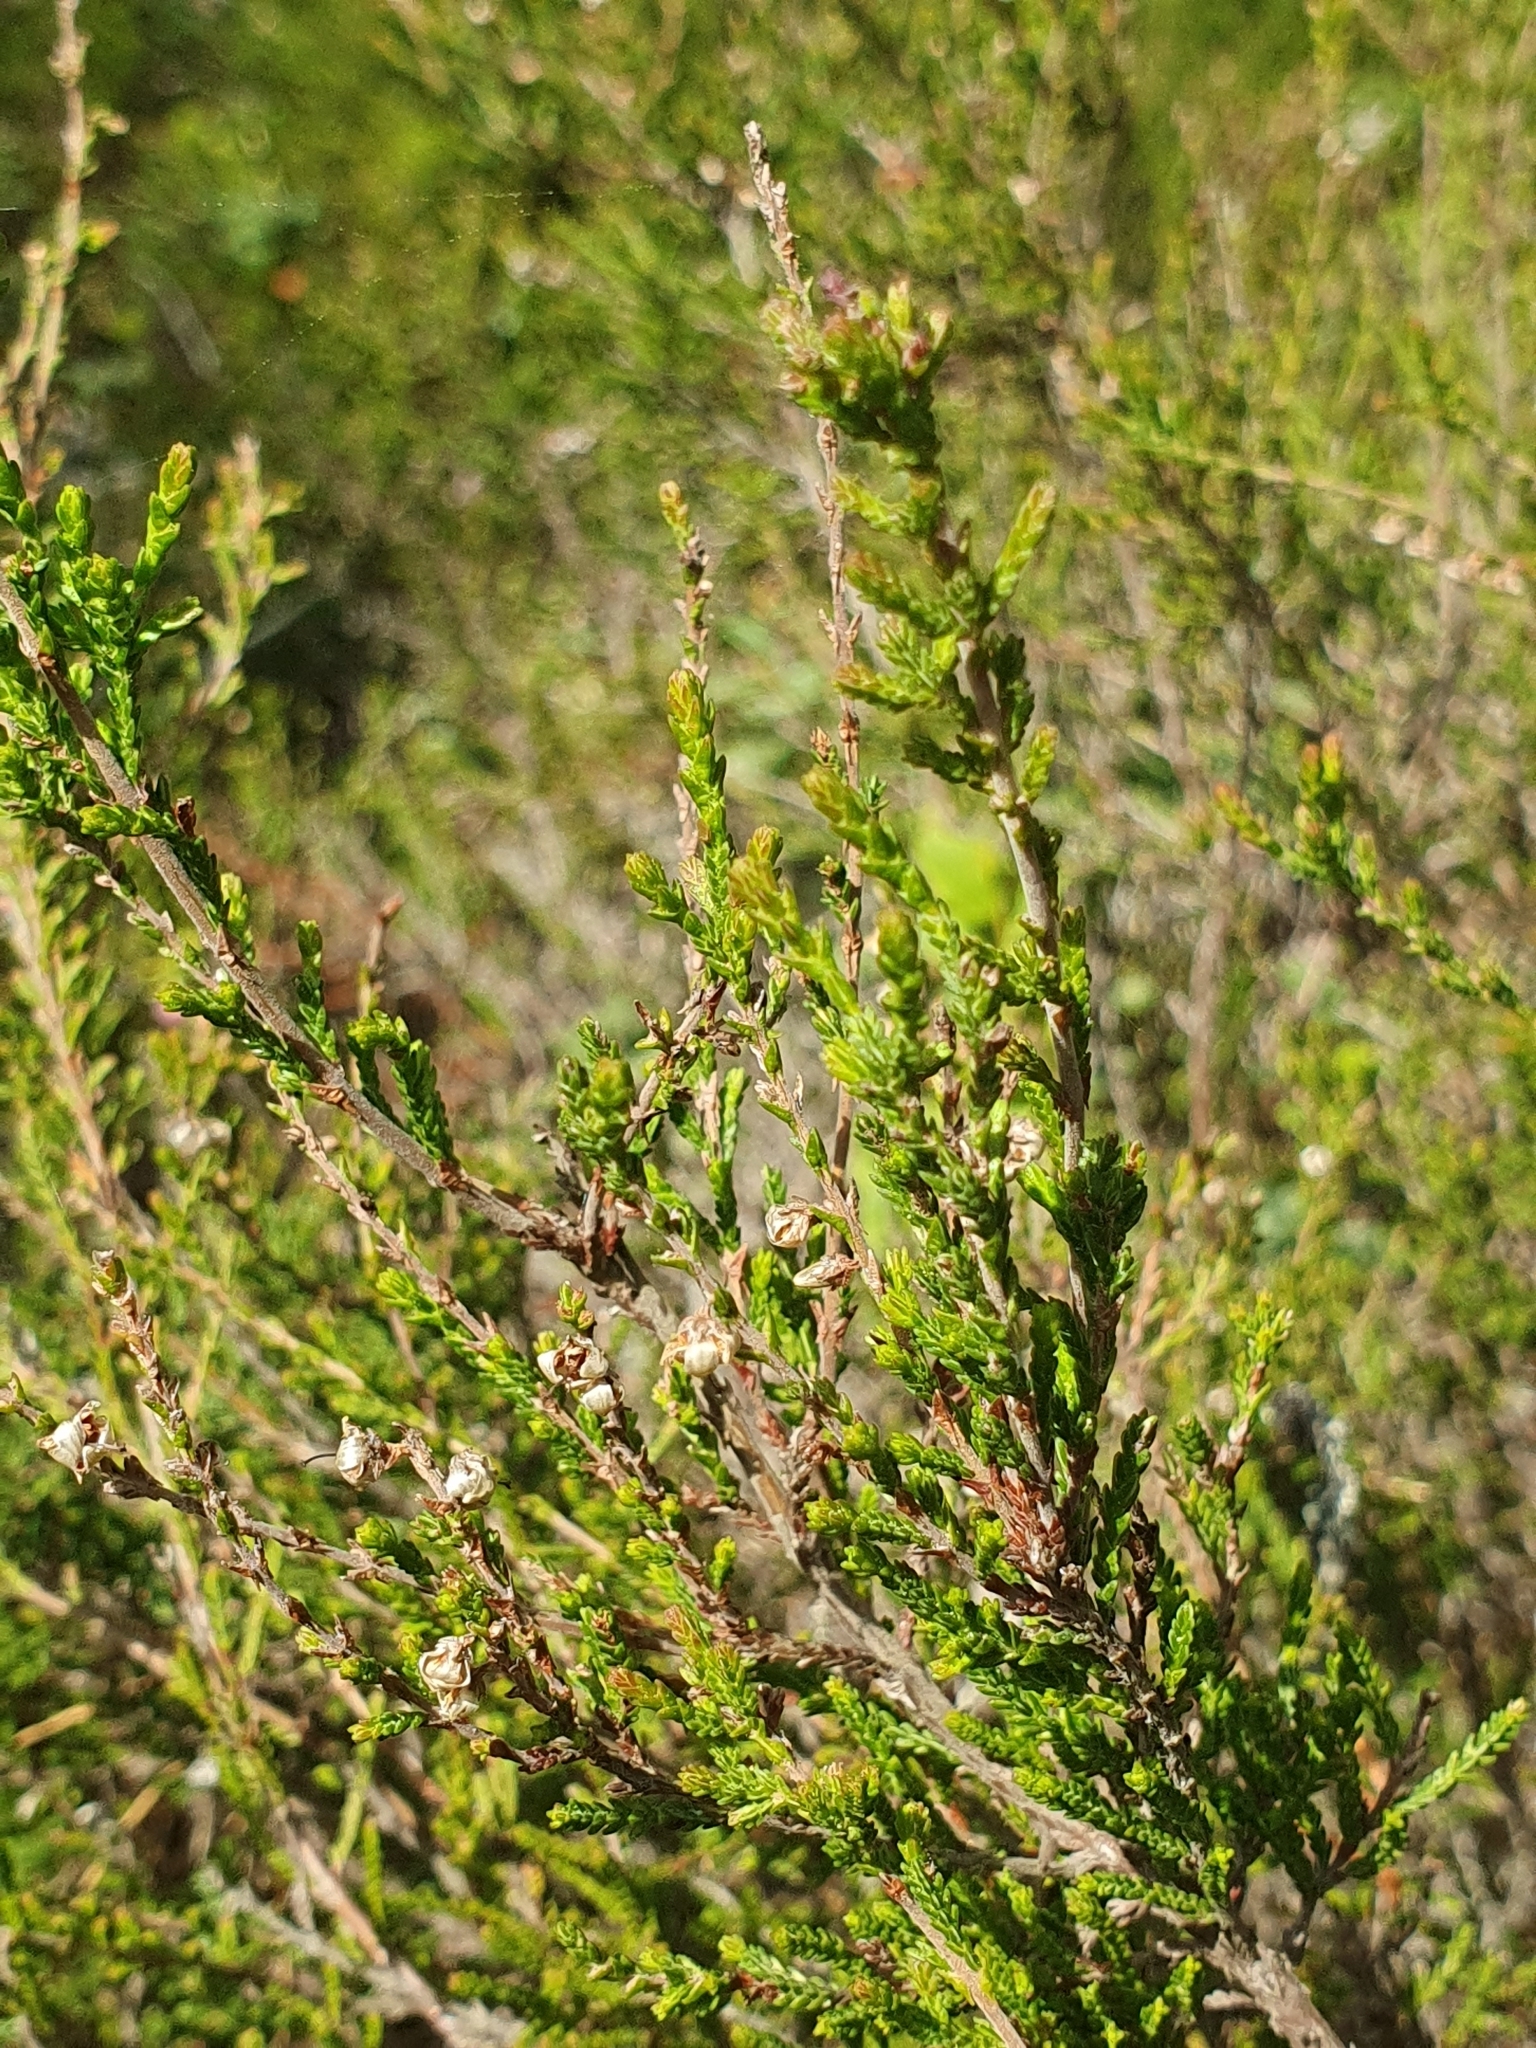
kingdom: Plantae
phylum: Tracheophyta
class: Magnoliopsida
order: Ericales
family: Ericaceae
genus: Calluna
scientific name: Calluna vulgaris
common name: Heather
